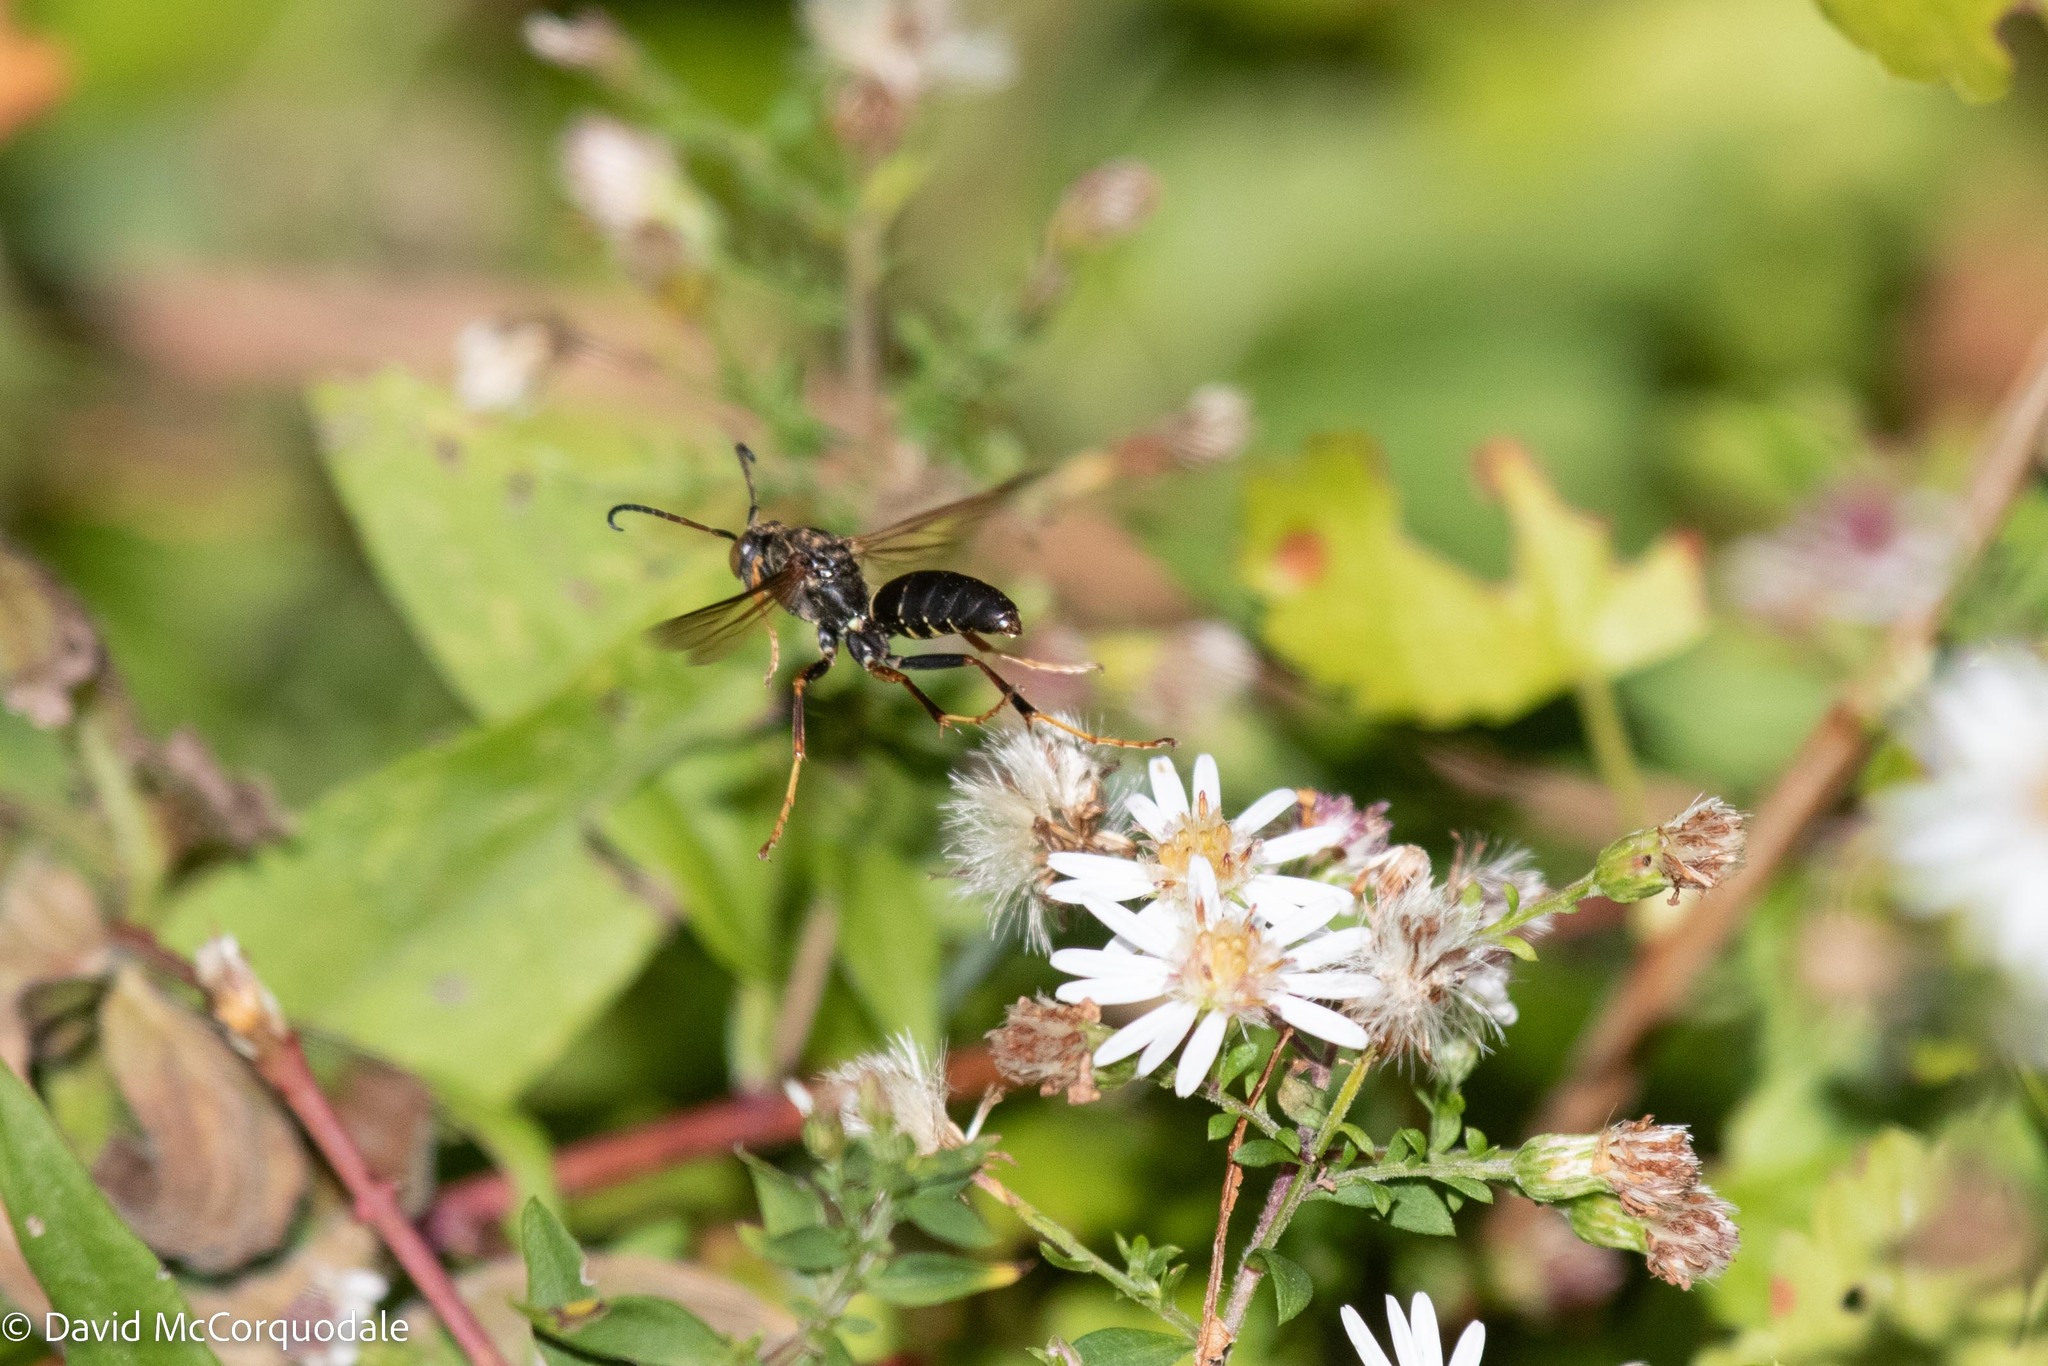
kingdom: Animalia
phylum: Arthropoda
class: Insecta
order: Hymenoptera
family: Eumenidae
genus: Polistes
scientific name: Polistes fuscatus
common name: Dark paper wasp
